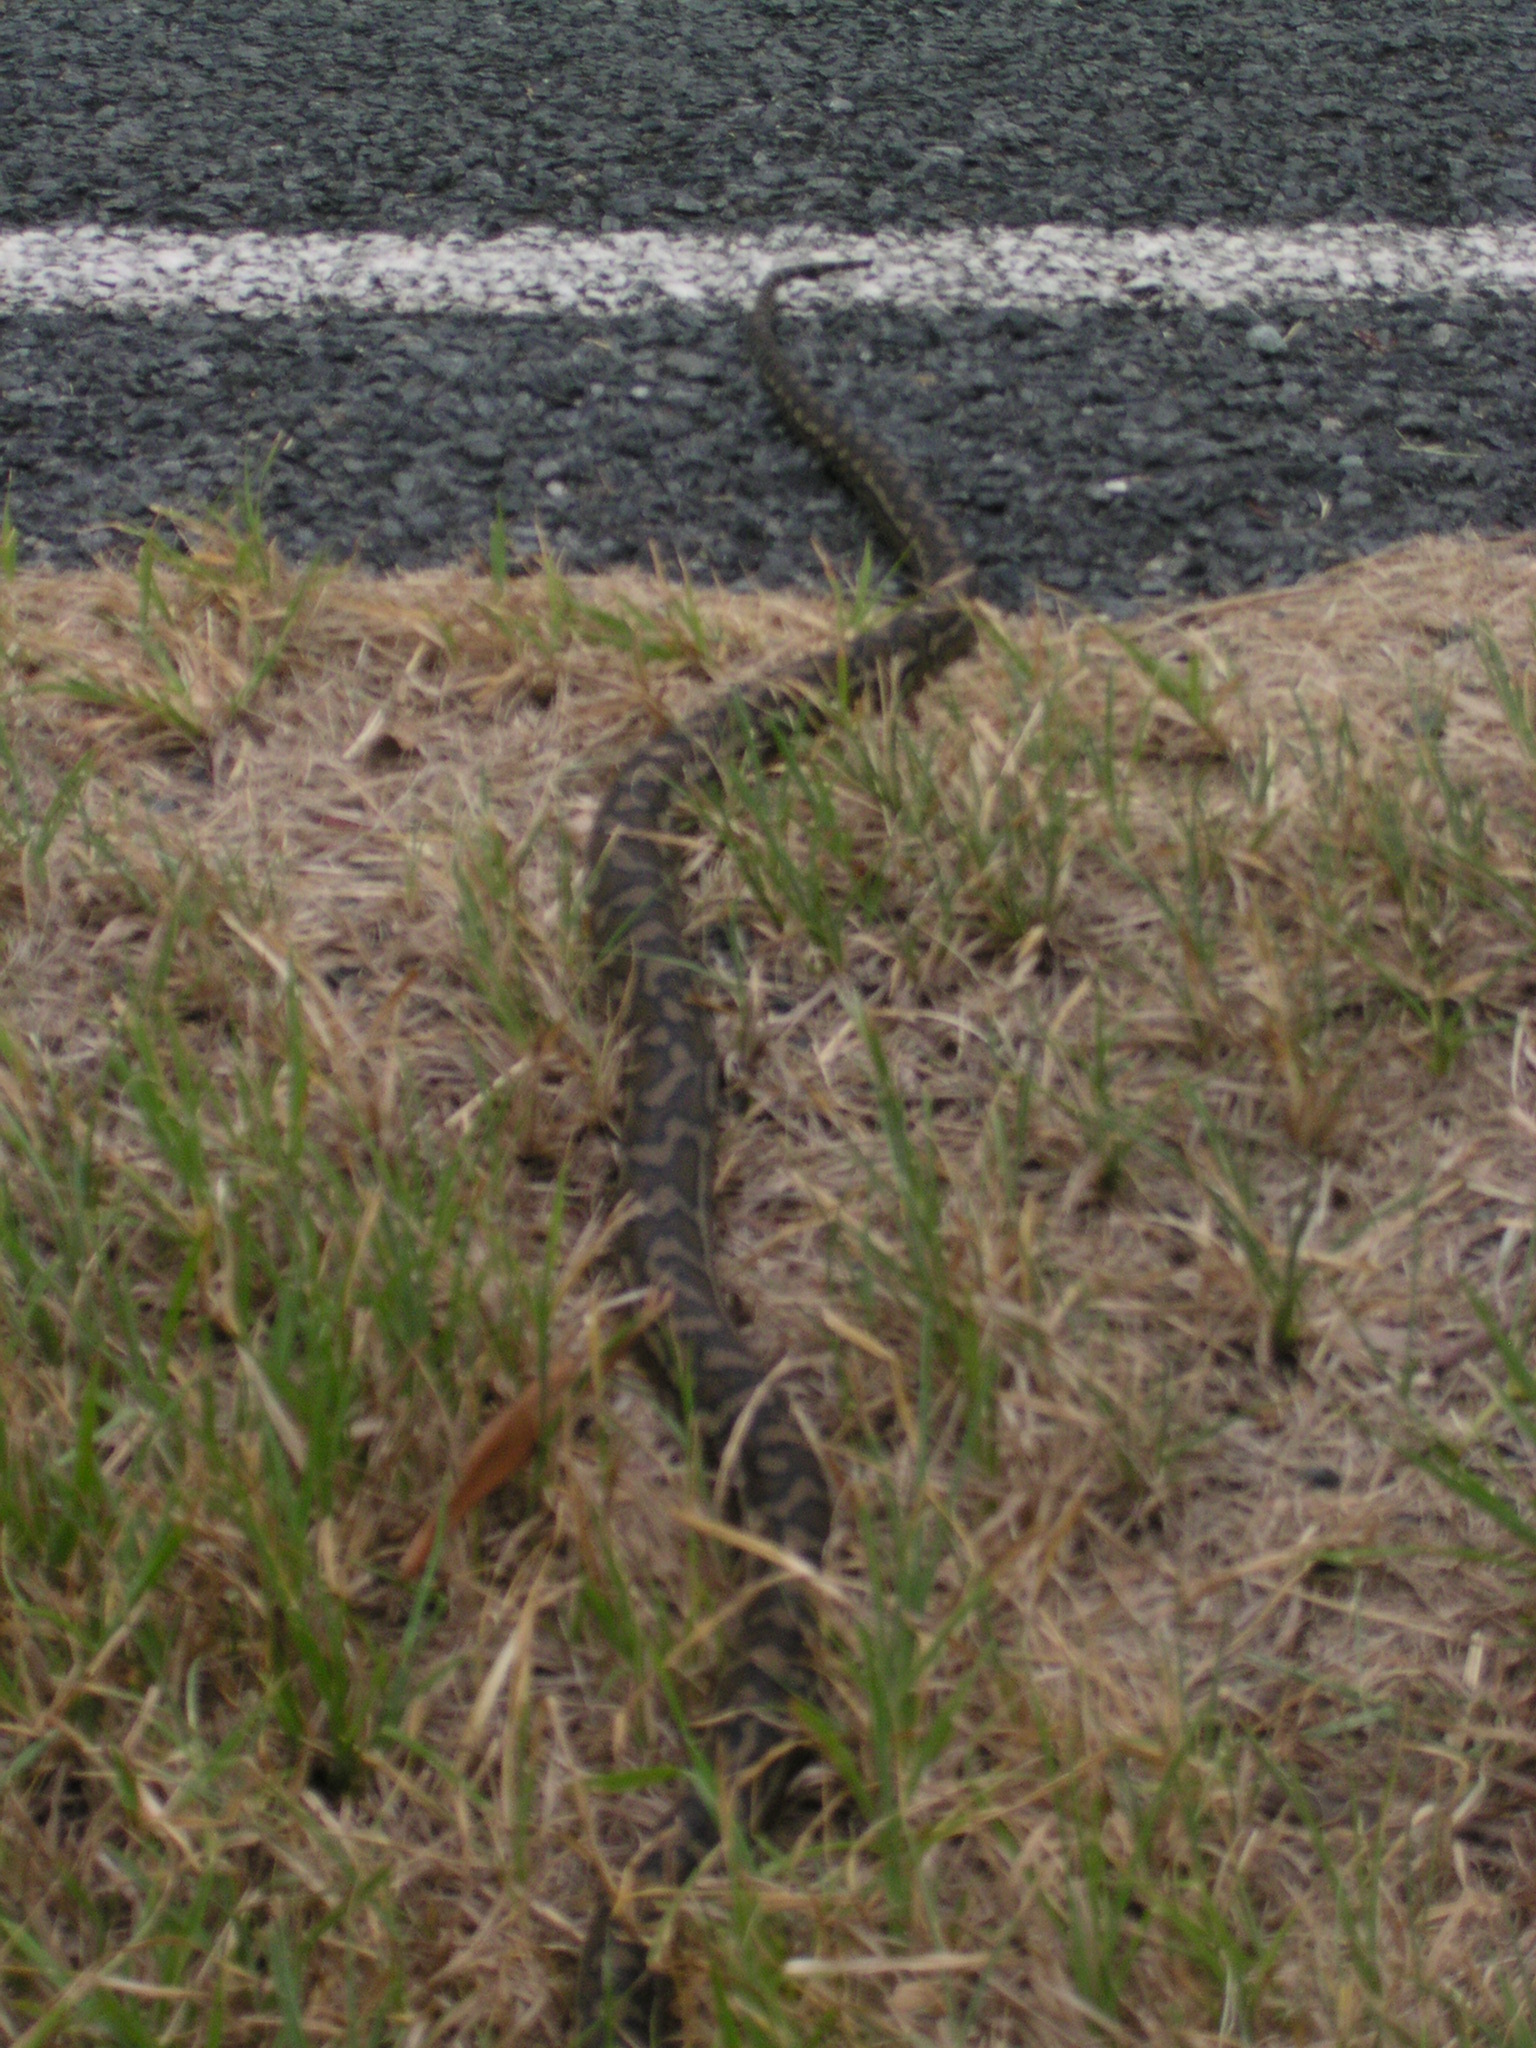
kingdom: Animalia
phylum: Chordata
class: Squamata
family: Pythonidae
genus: Morelia
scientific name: Morelia spilota
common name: Carpet python
